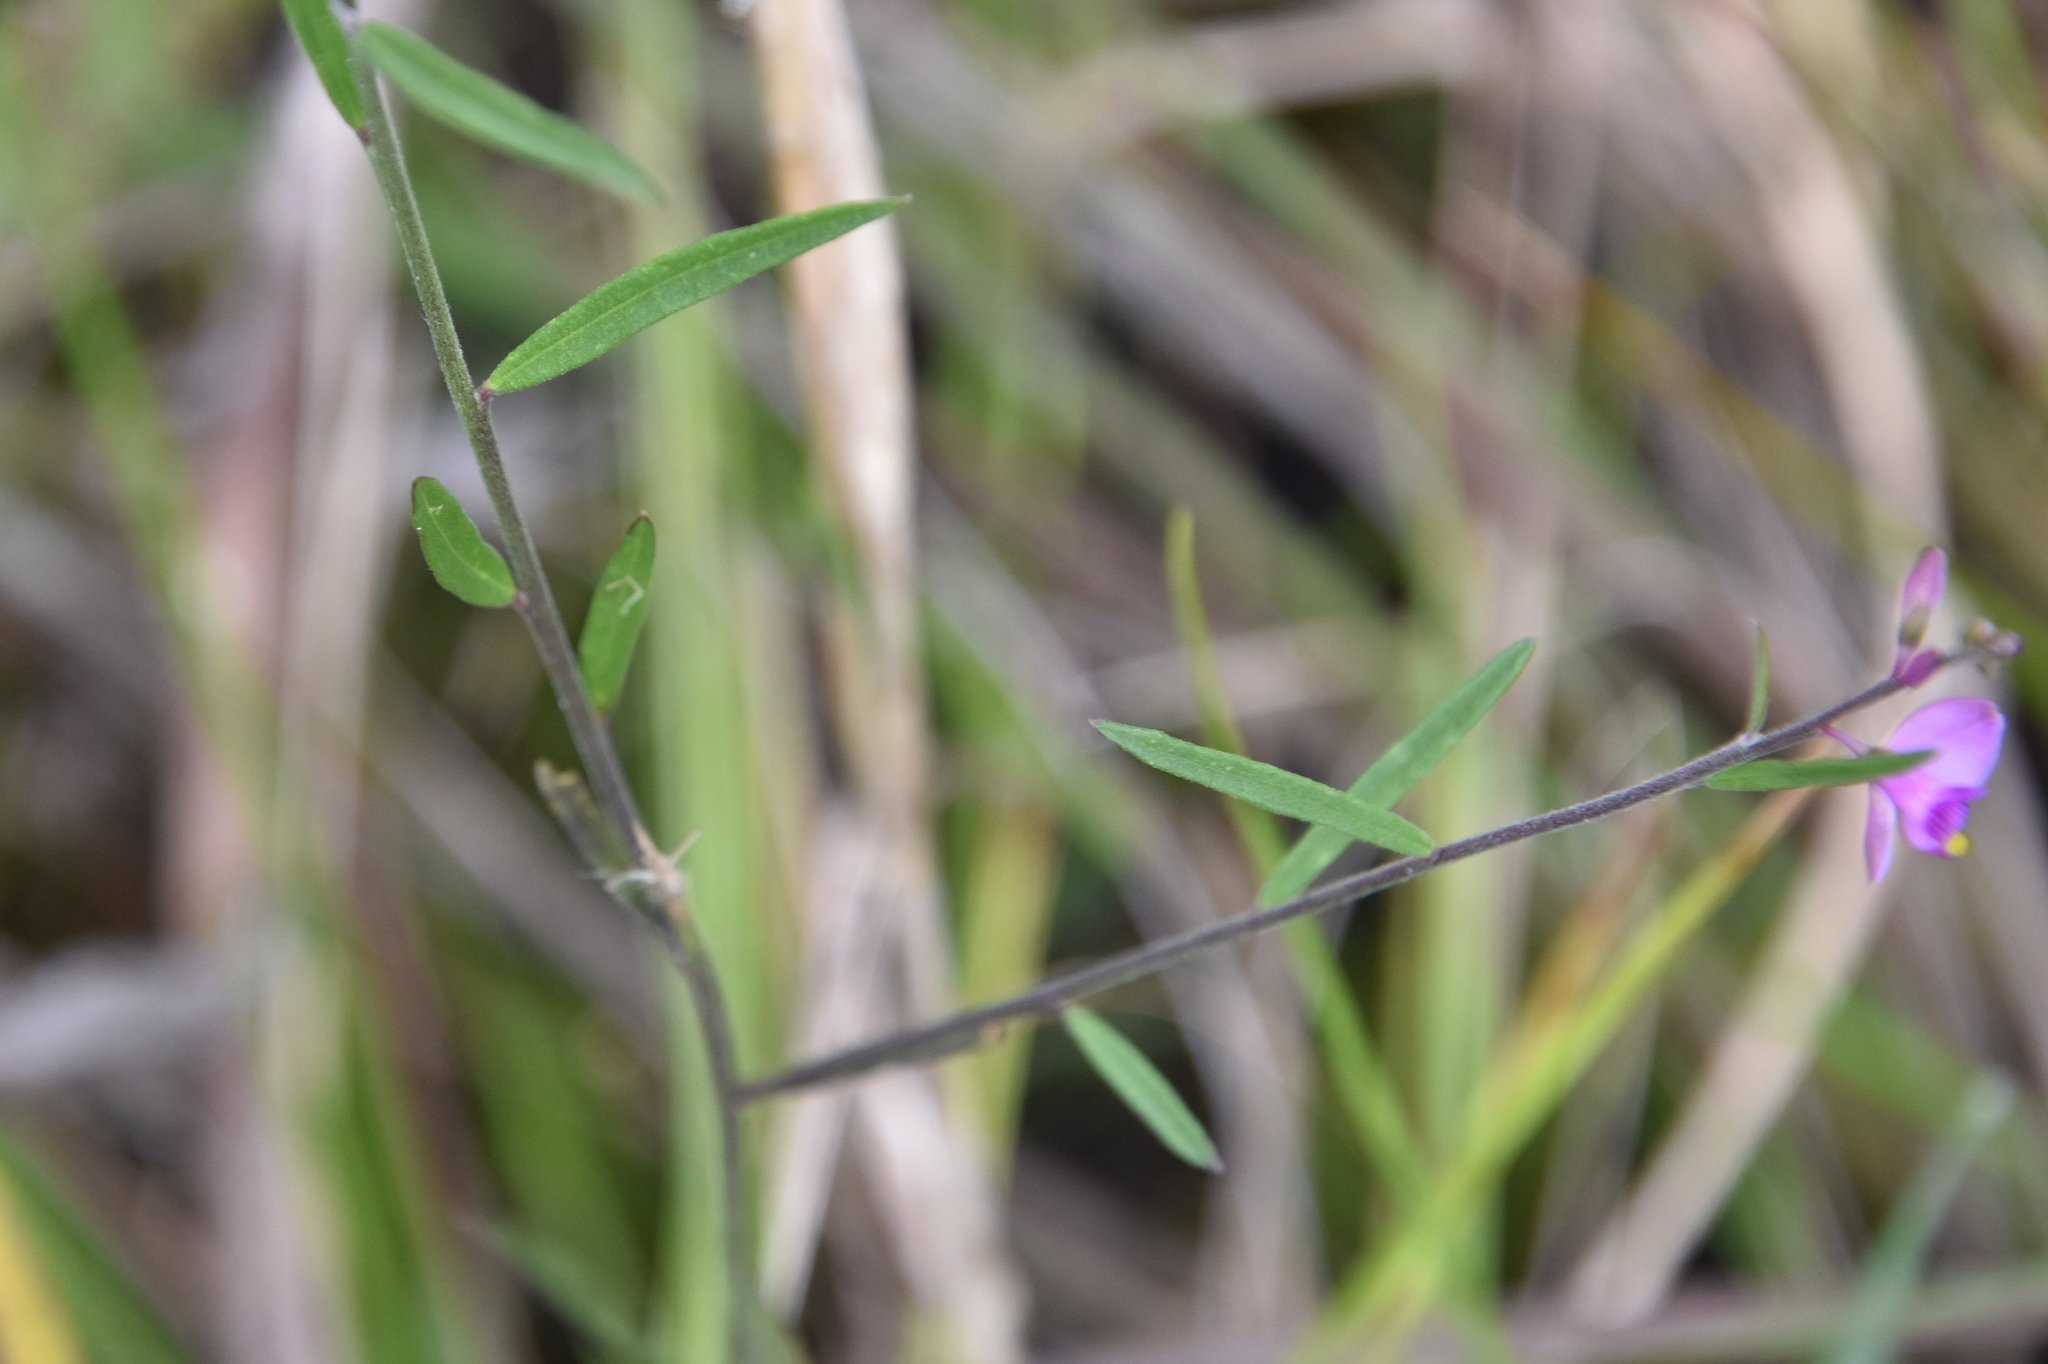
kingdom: Plantae
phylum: Tracheophyta
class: Magnoliopsida
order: Fabales
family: Polygalaceae
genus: Asemeia
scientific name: Asemeia grandiflora
